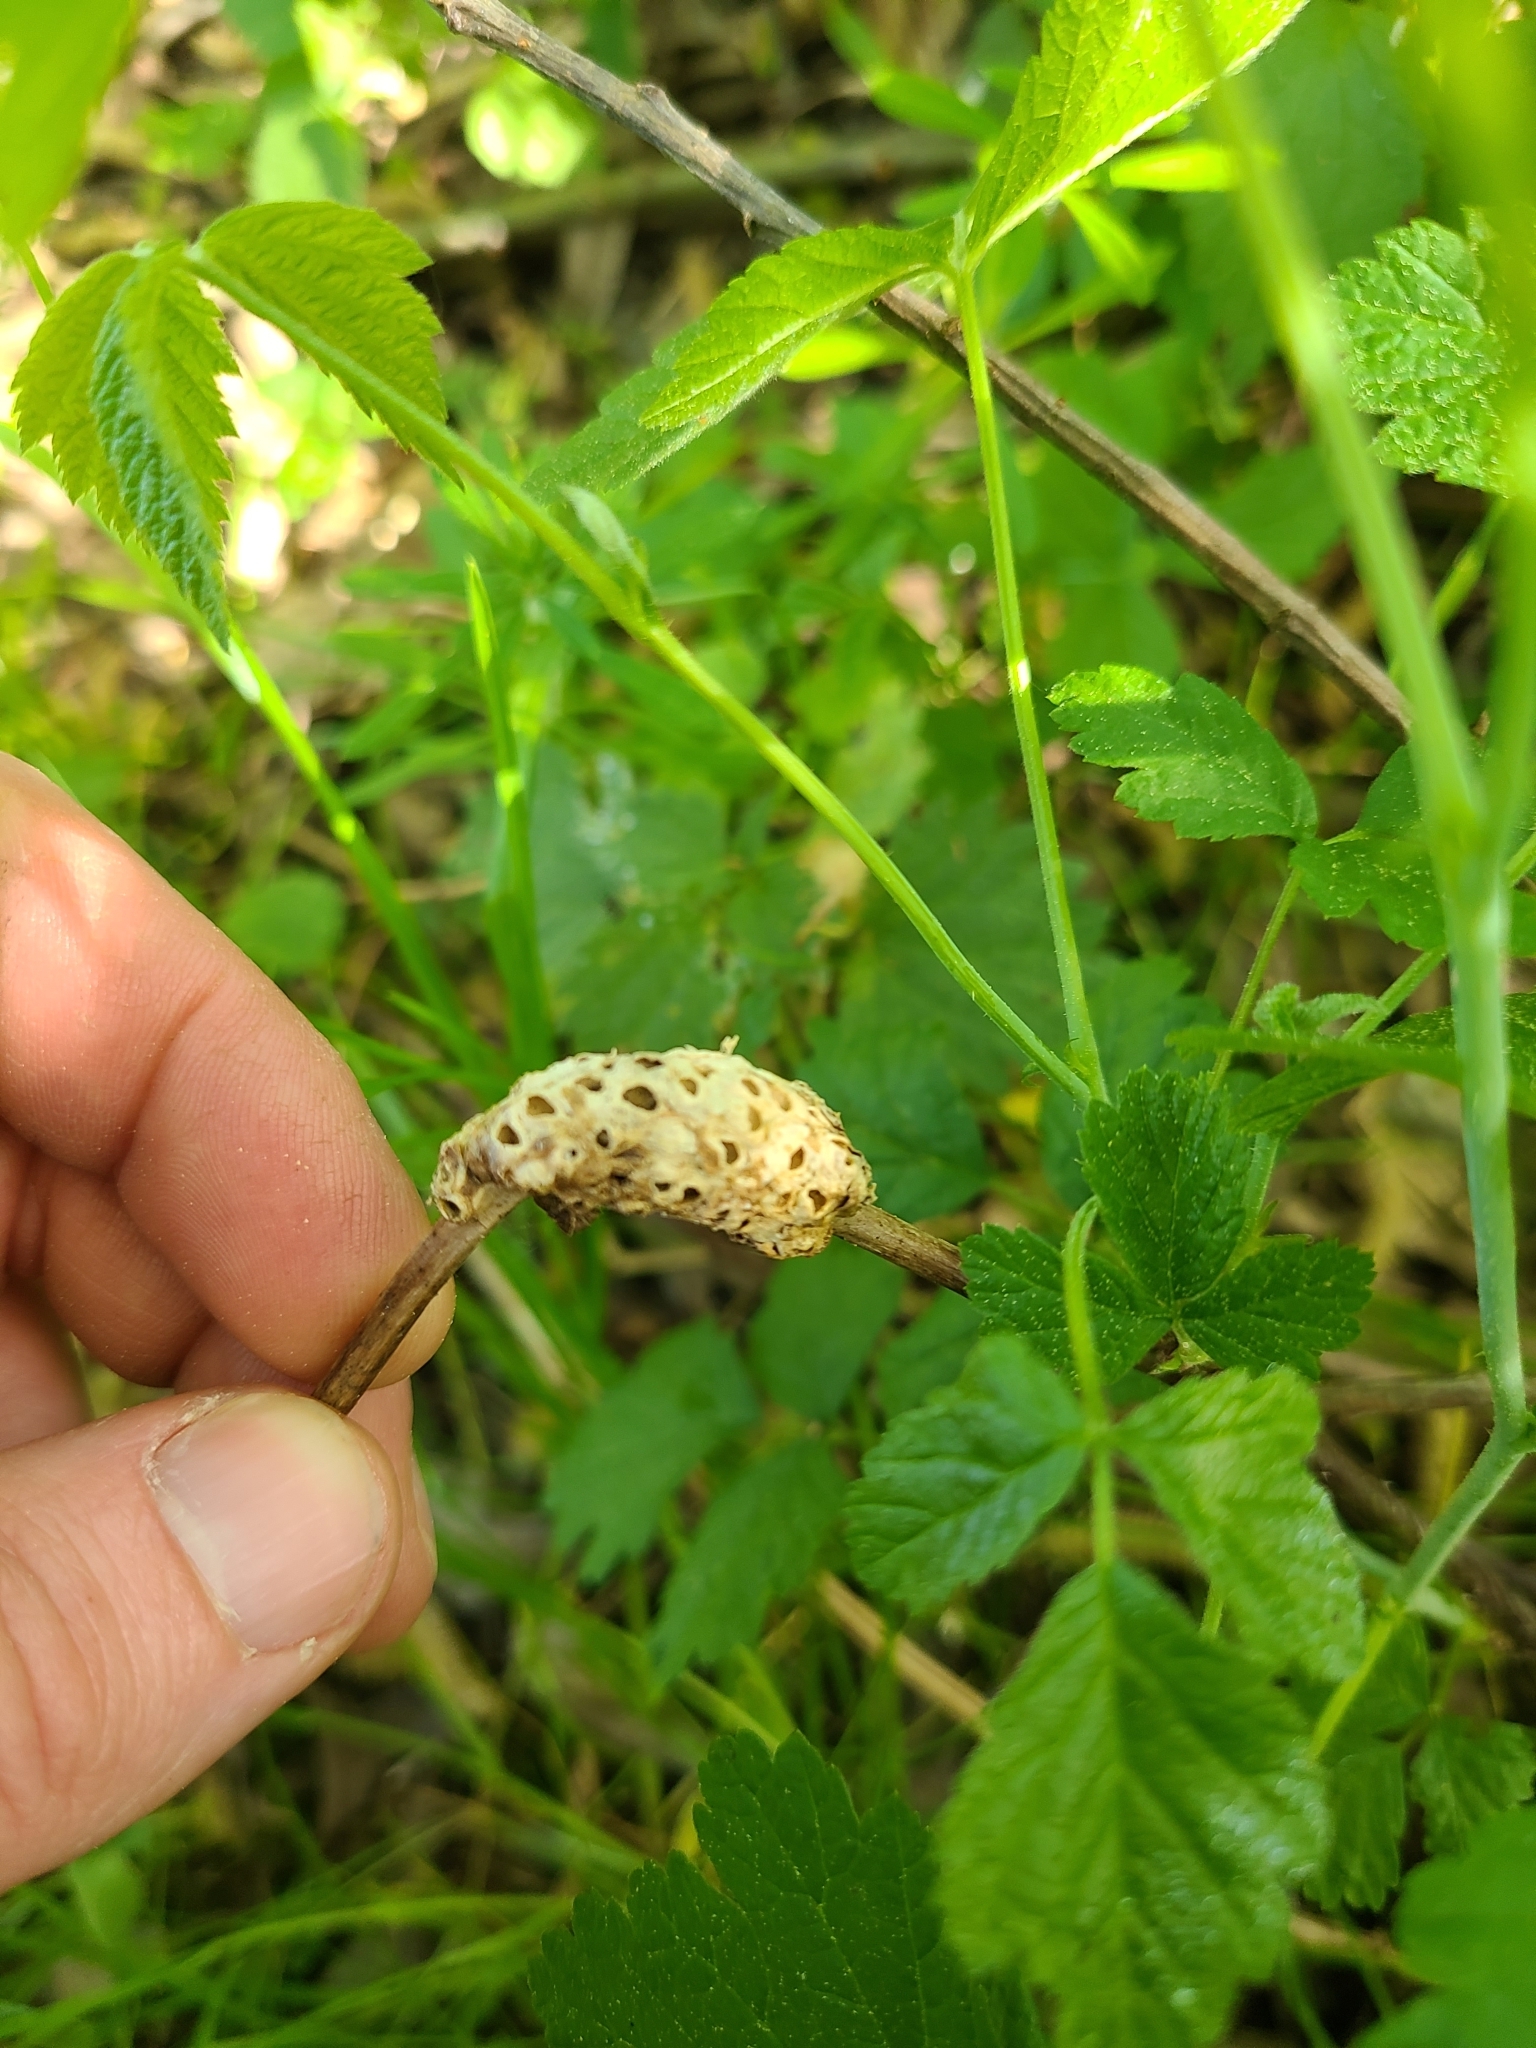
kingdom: Animalia
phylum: Arthropoda
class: Insecta
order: Hymenoptera
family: Cynipidae
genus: Diastrophus
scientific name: Diastrophus rubi
